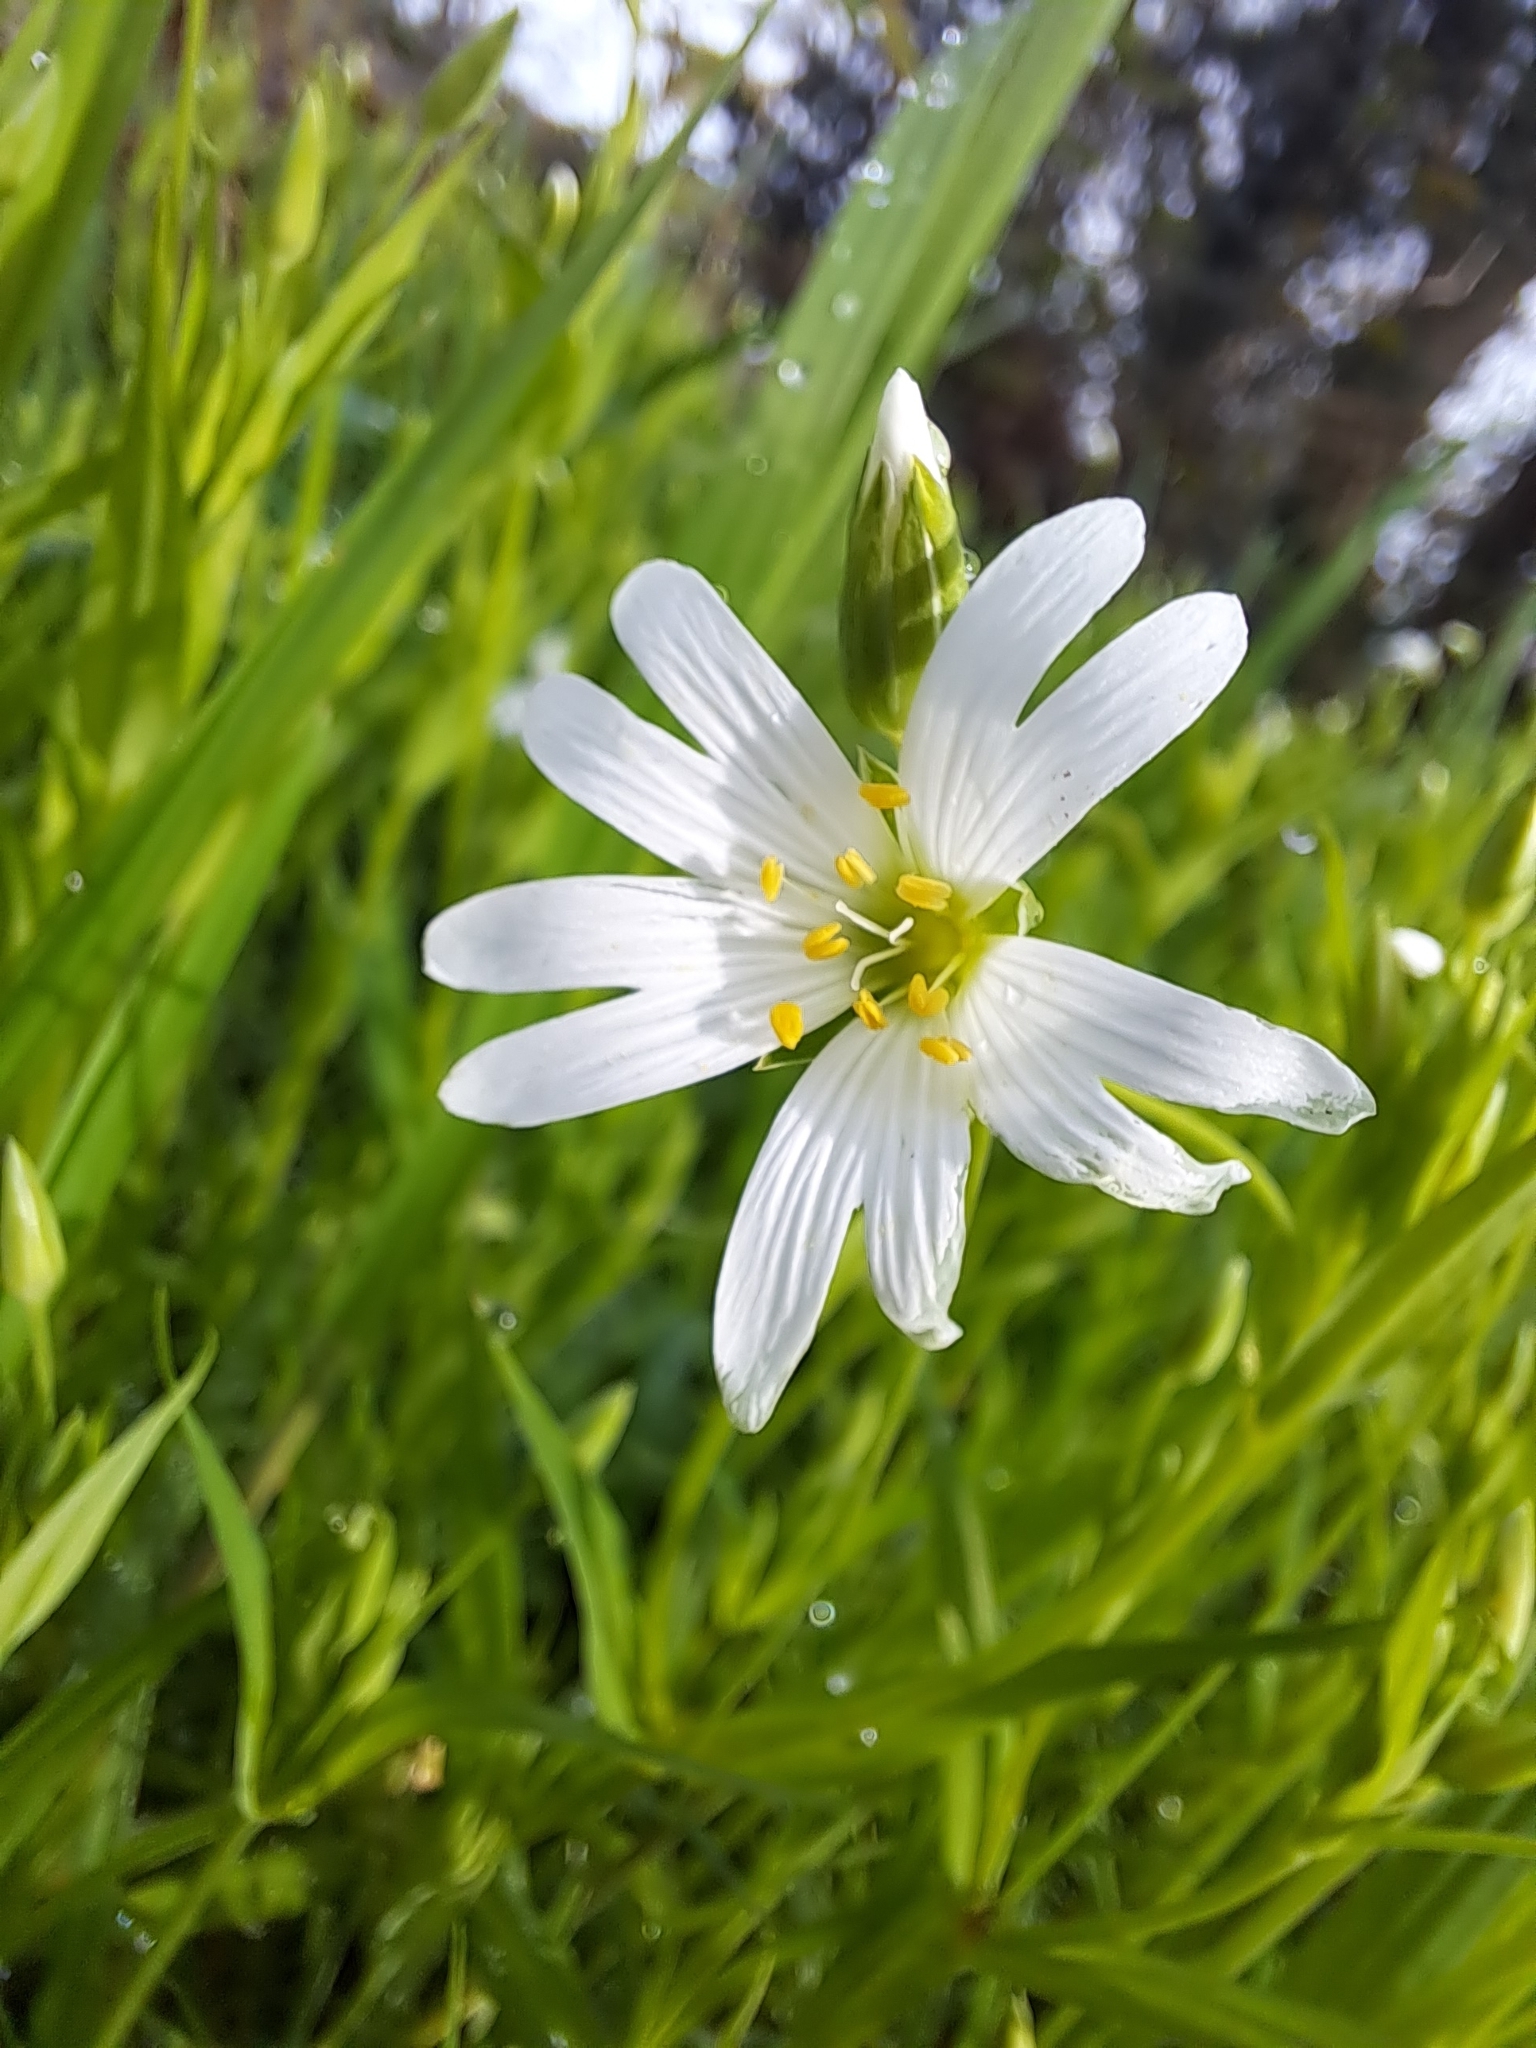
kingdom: Plantae
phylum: Tracheophyta
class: Magnoliopsida
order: Caryophyllales
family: Caryophyllaceae
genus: Rabelera
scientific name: Rabelera holostea
